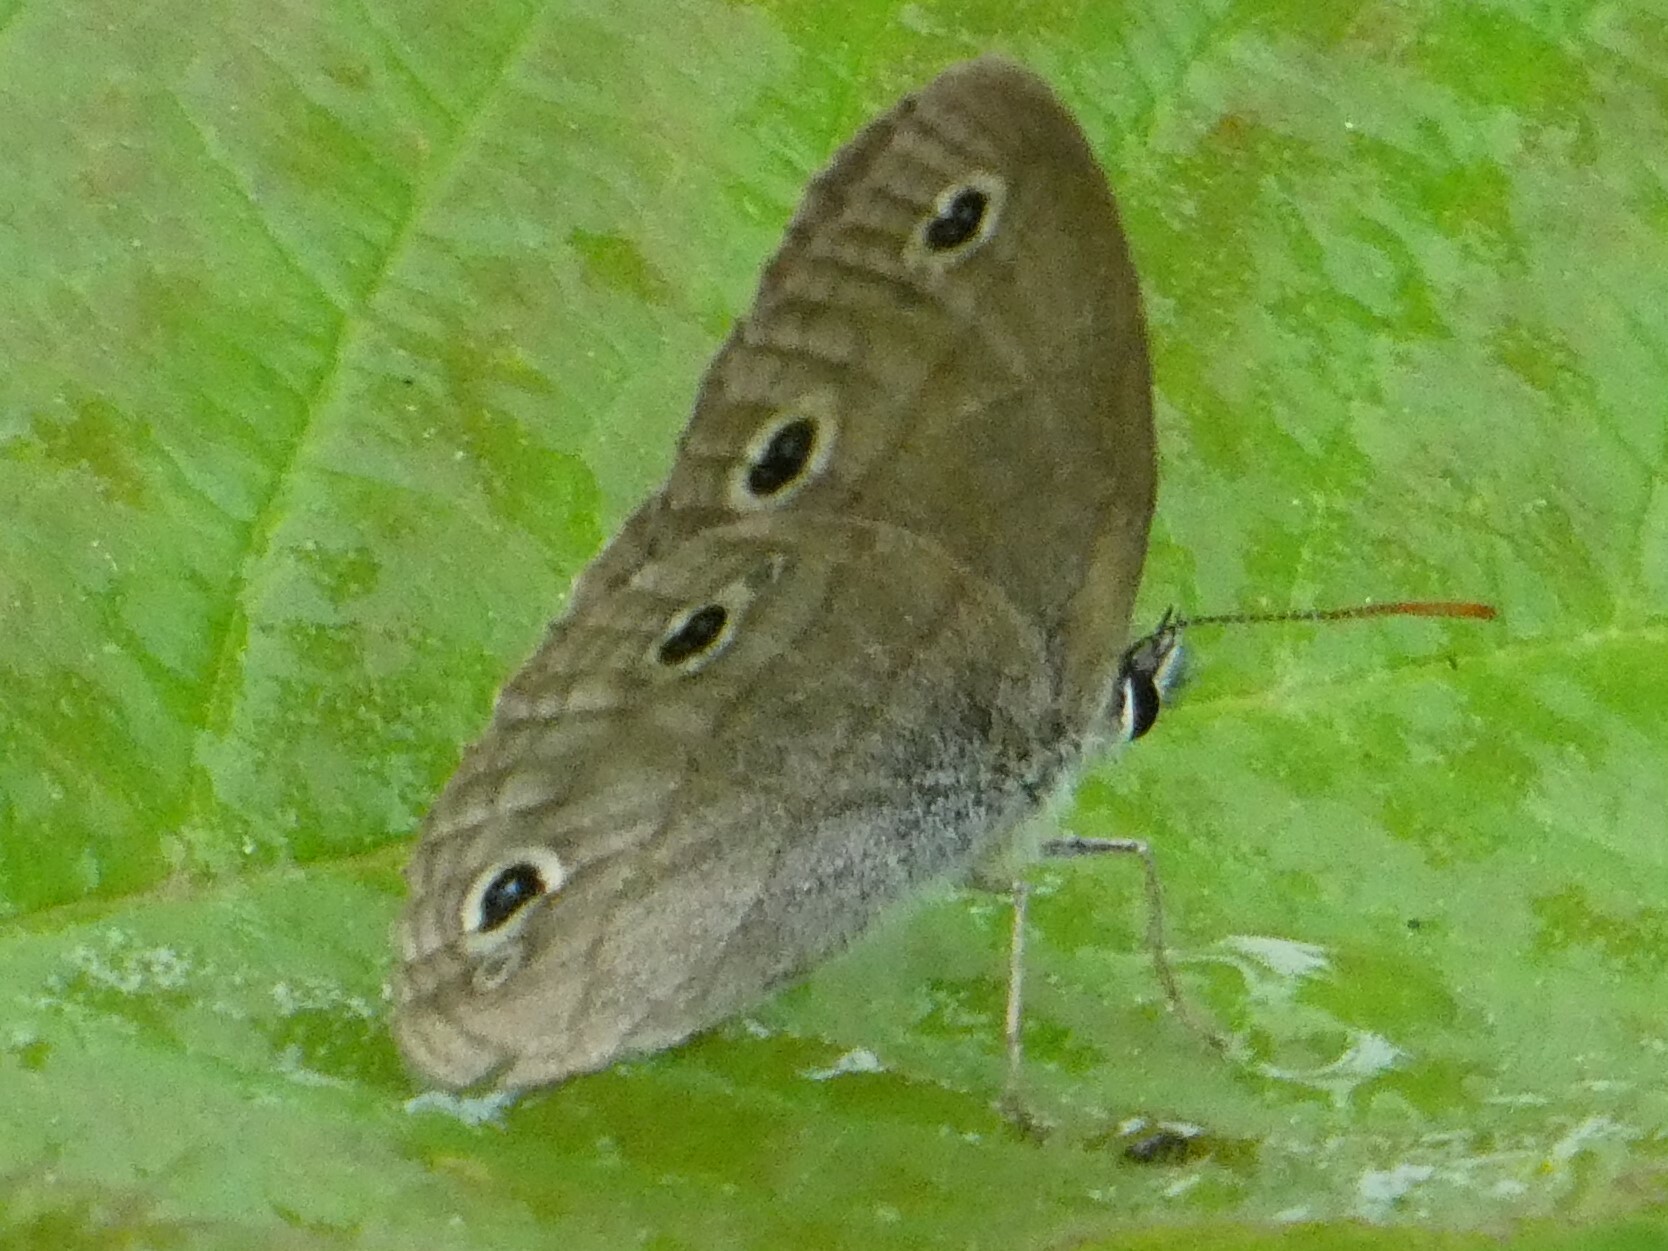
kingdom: Animalia
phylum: Arthropoda
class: Insecta
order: Lepidoptera
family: Nymphalidae
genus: Euptychia
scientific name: Euptychia cymela
